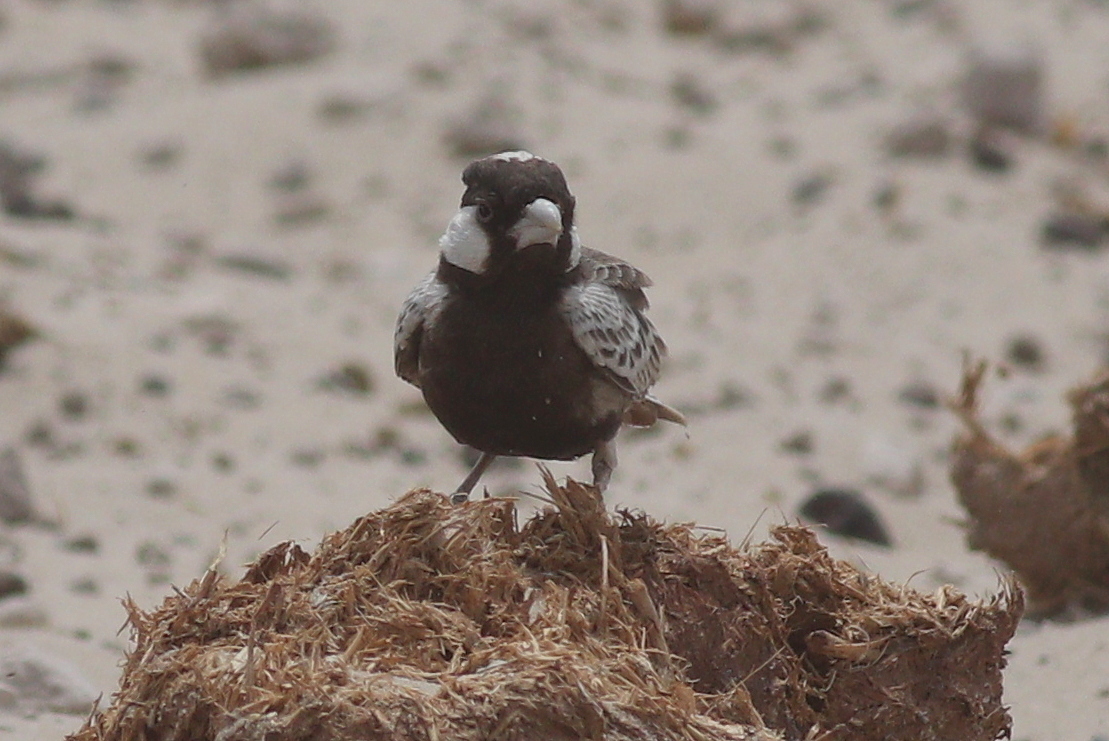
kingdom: Animalia
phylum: Chordata
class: Aves
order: Passeriformes
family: Alaudidae
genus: Eremopterix
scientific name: Eremopterix verticalis
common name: Grey-backed sparrow-lark
